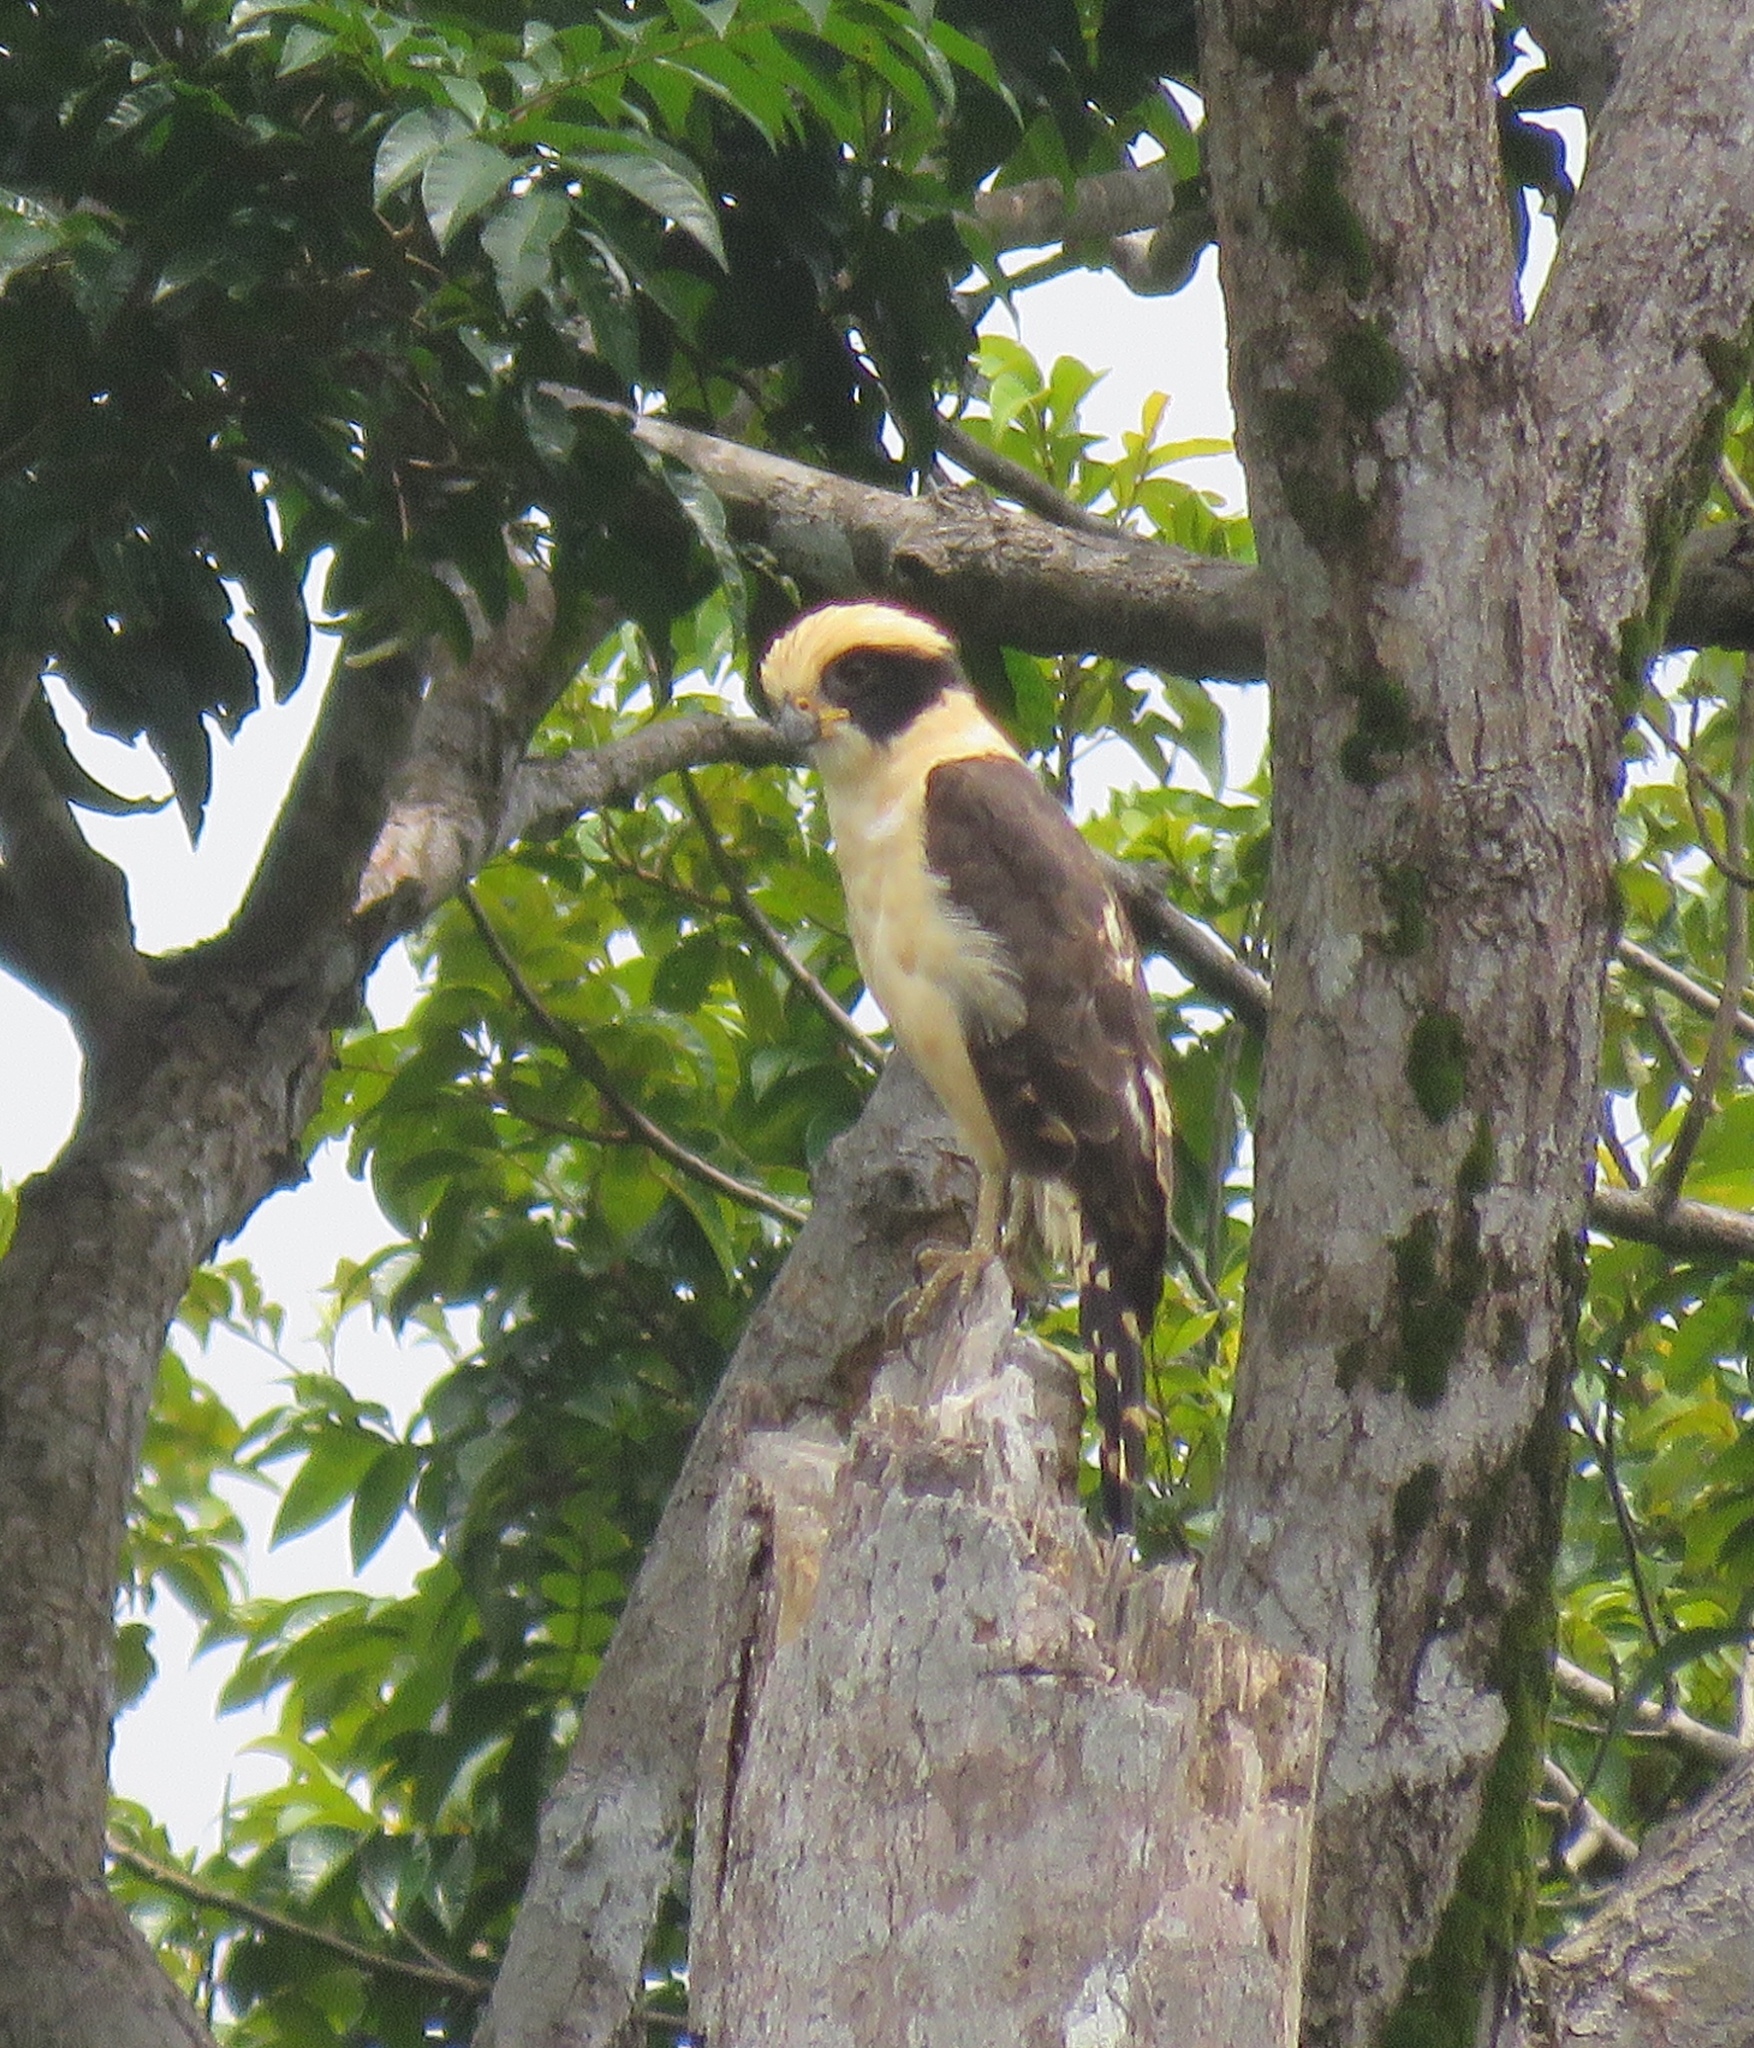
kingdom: Animalia
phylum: Chordata
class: Aves
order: Falconiformes
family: Falconidae
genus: Herpetotheres
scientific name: Herpetotheres cachinnans
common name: Laughing falcon
